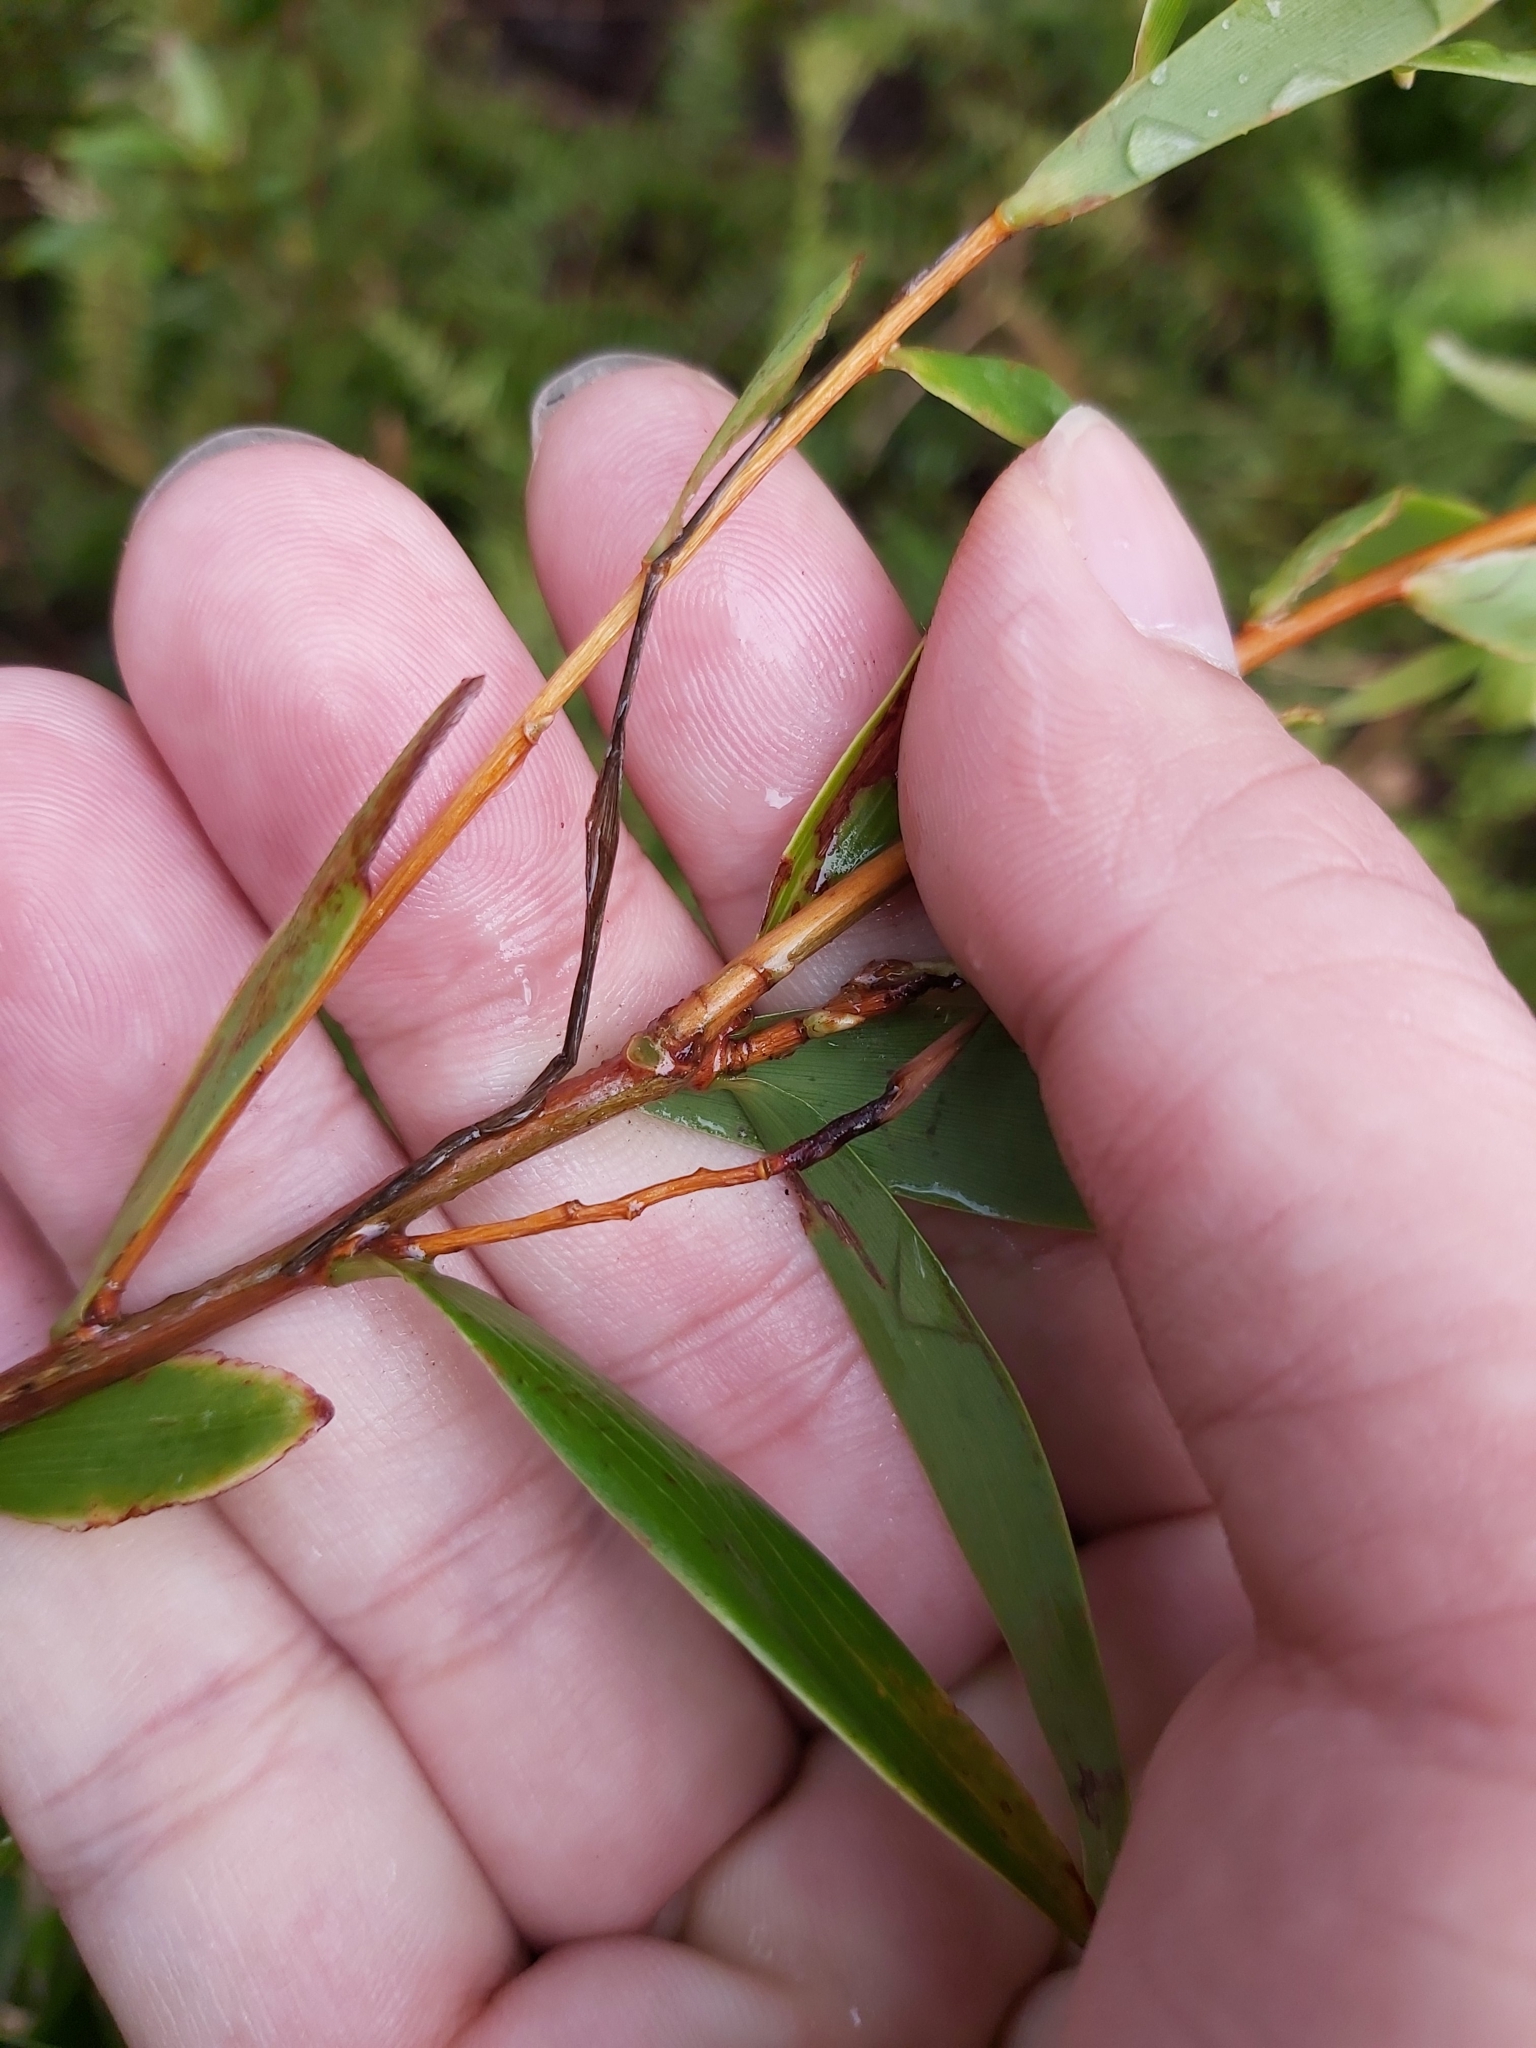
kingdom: Plantae
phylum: Tracheophyta
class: Magnoliopsida
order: Ericales
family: Ericaceae
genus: Leucopogon
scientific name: Leucopogon lanceolatus
